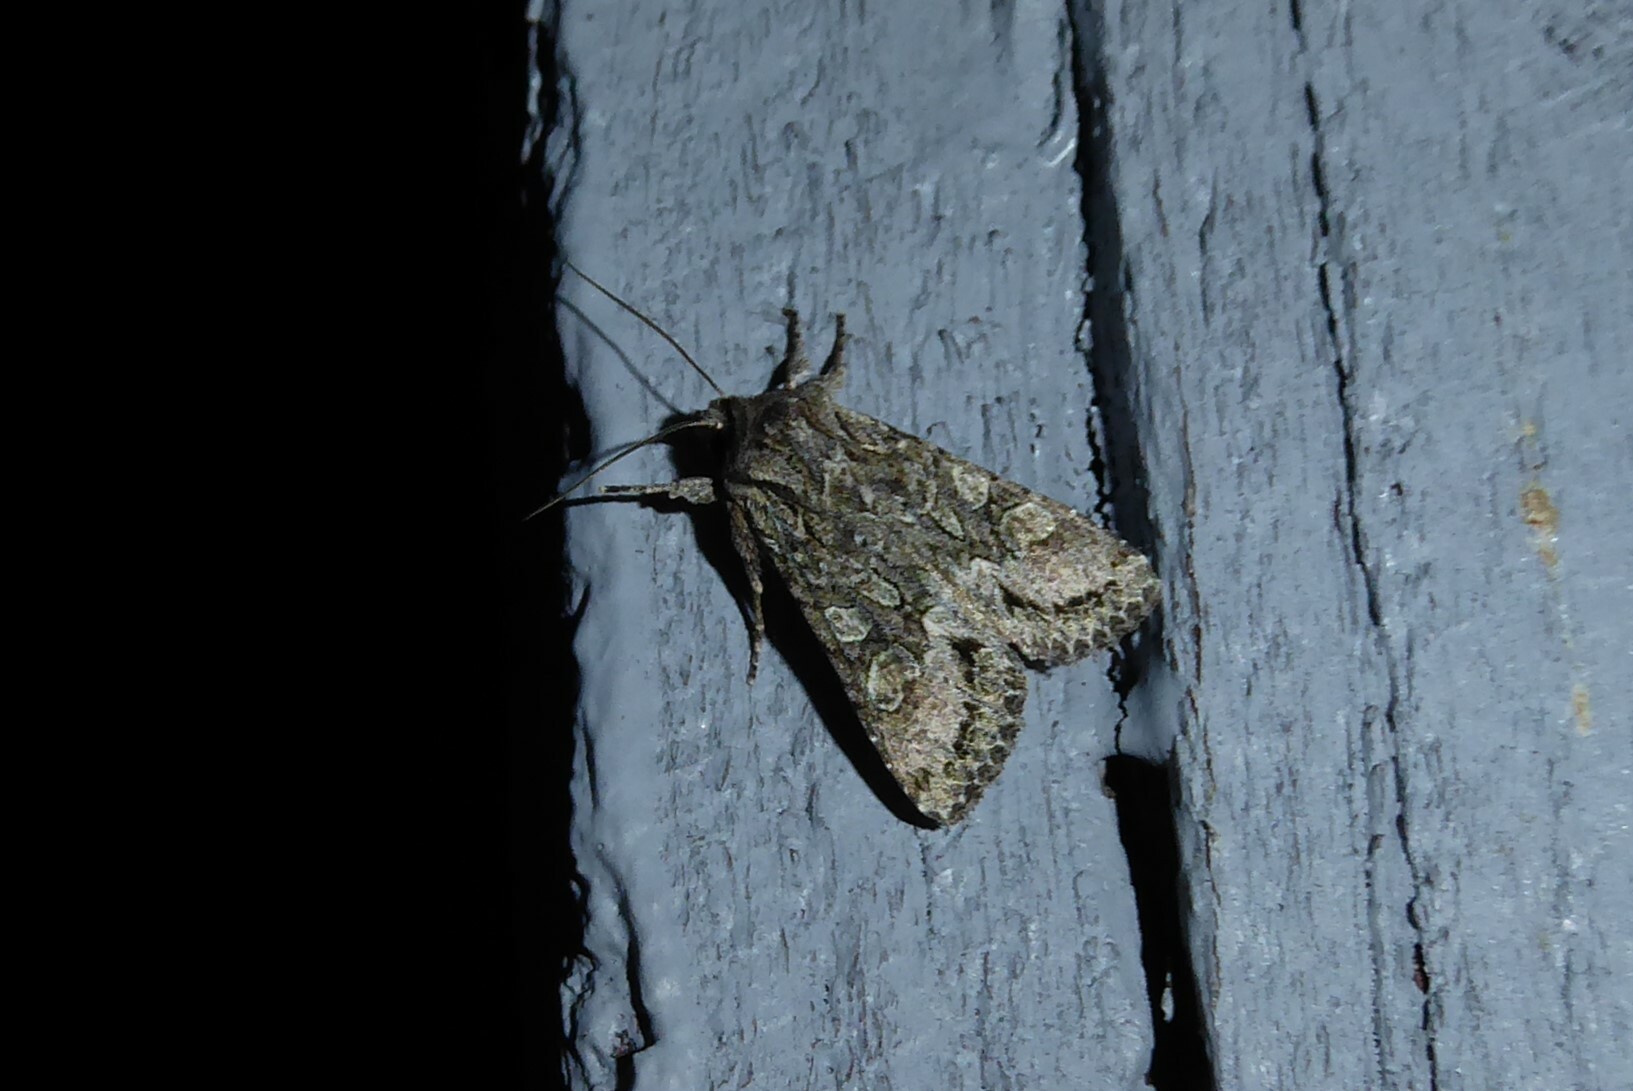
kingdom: Animalia
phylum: Arthropoda
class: Insecta
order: Lepidoptera
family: Noctuidae
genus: Ichneutica
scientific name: Ichneutica mutans
